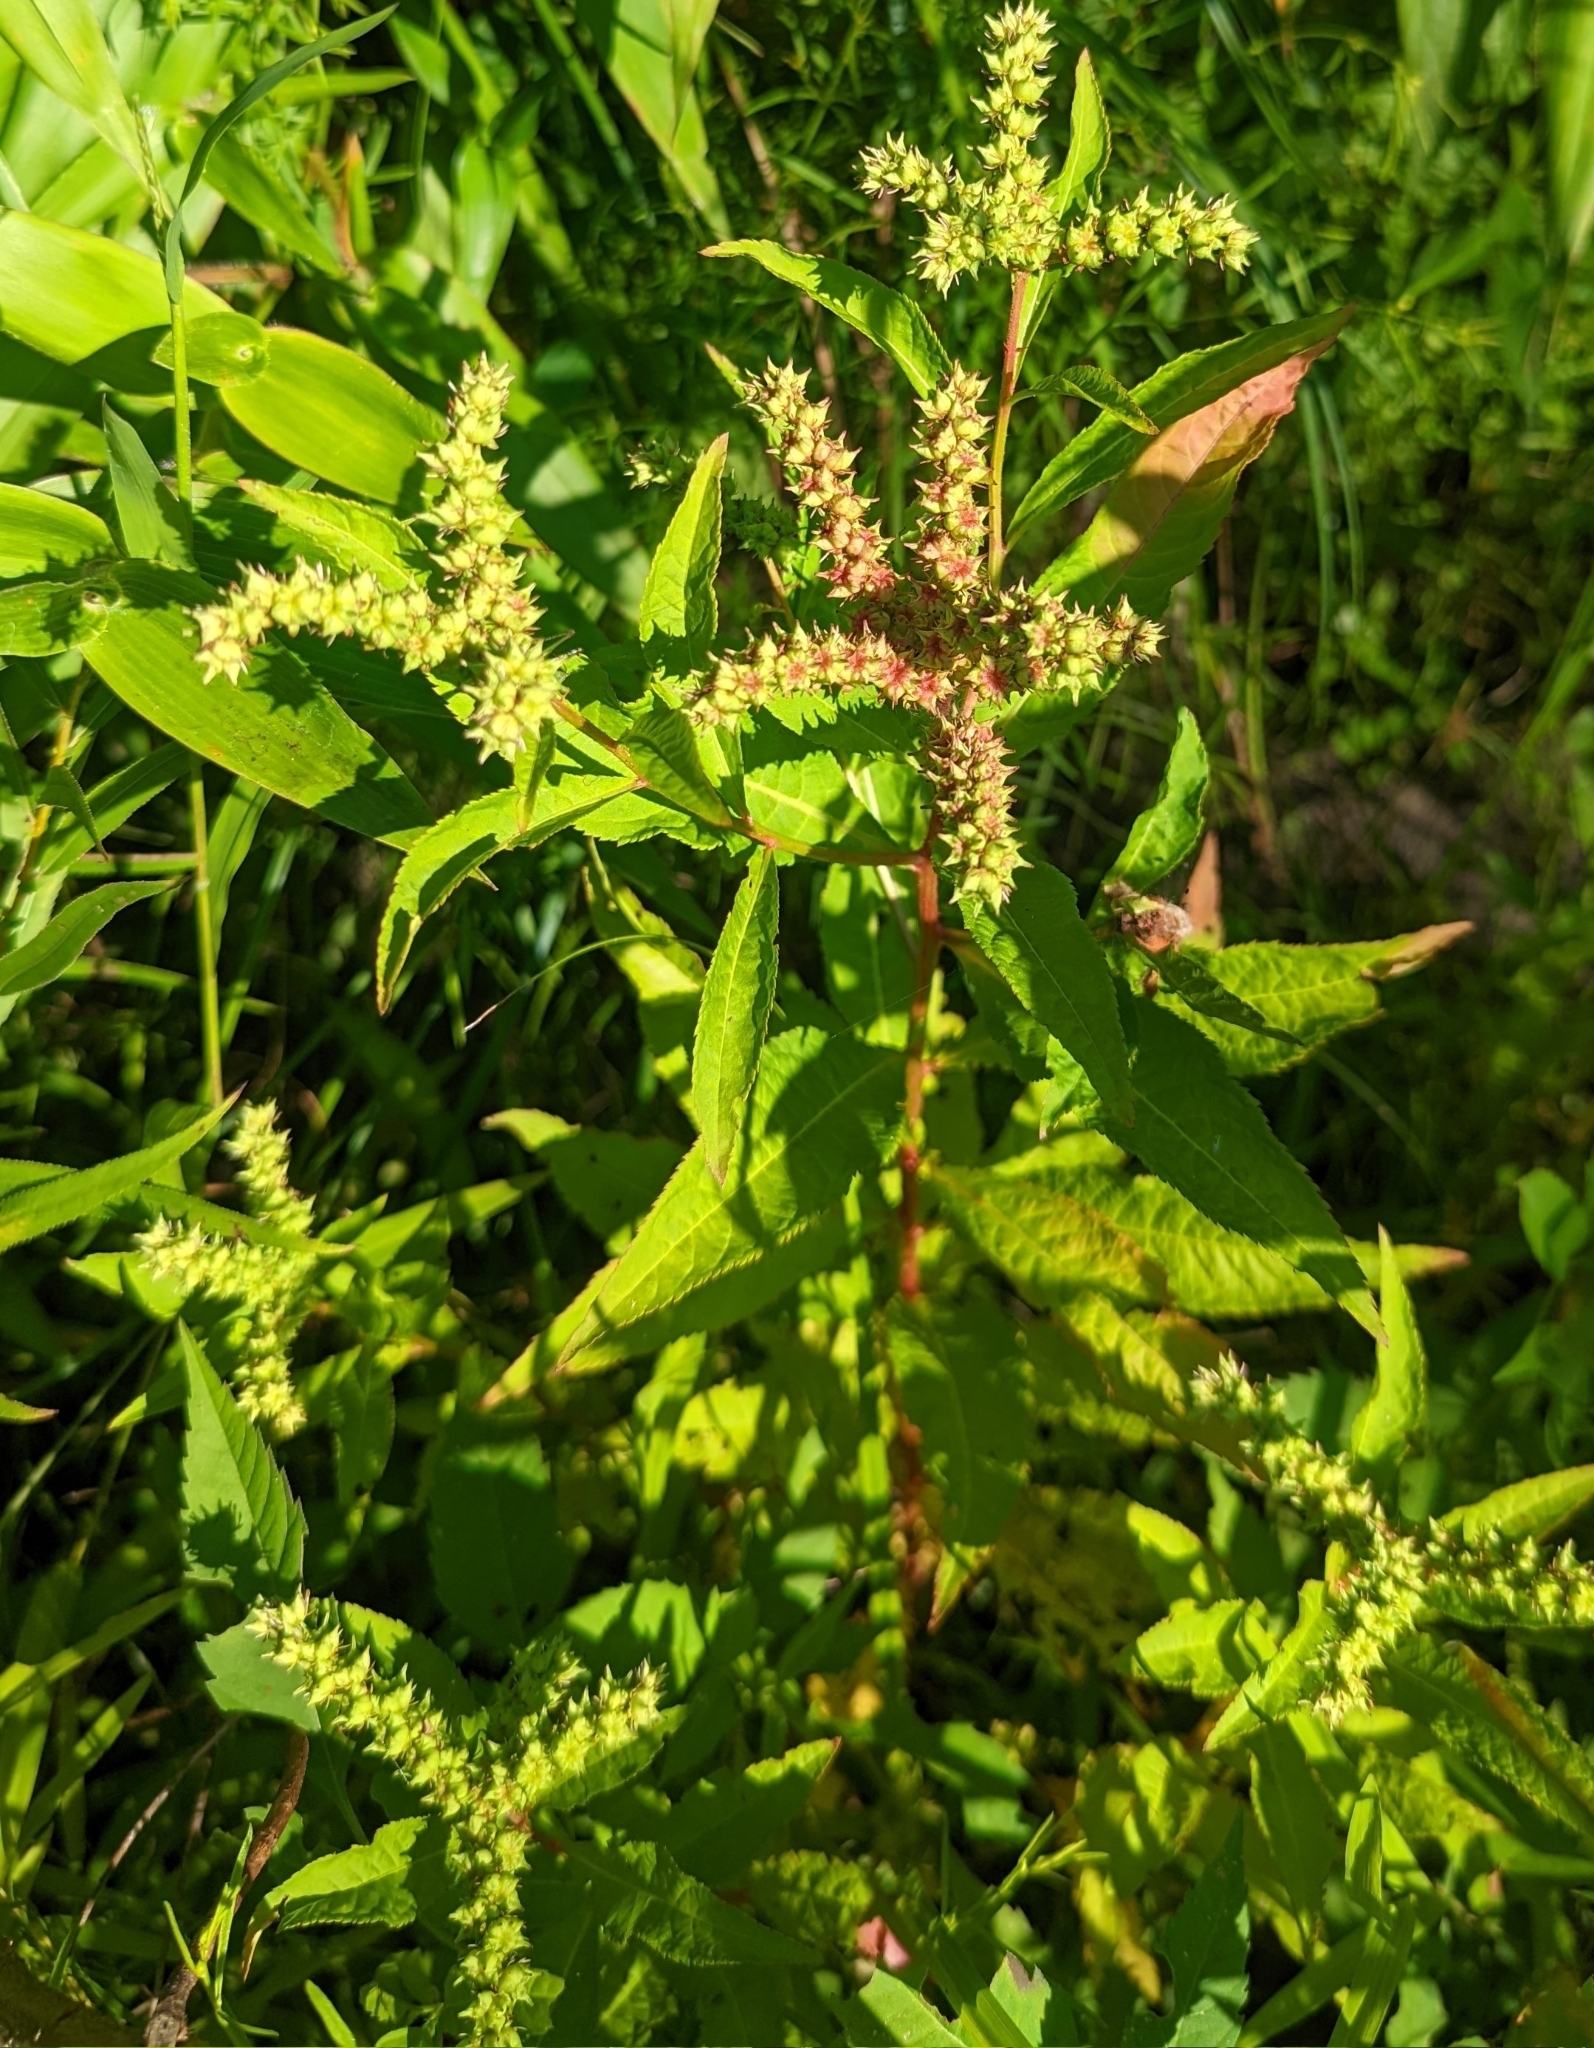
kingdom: Plantae
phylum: Tracheophyta
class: Magnoliopsida
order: Saxifragales
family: Penthoraceae
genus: Penthorum
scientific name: Penthorum sedoides
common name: Ditch stonecrop
